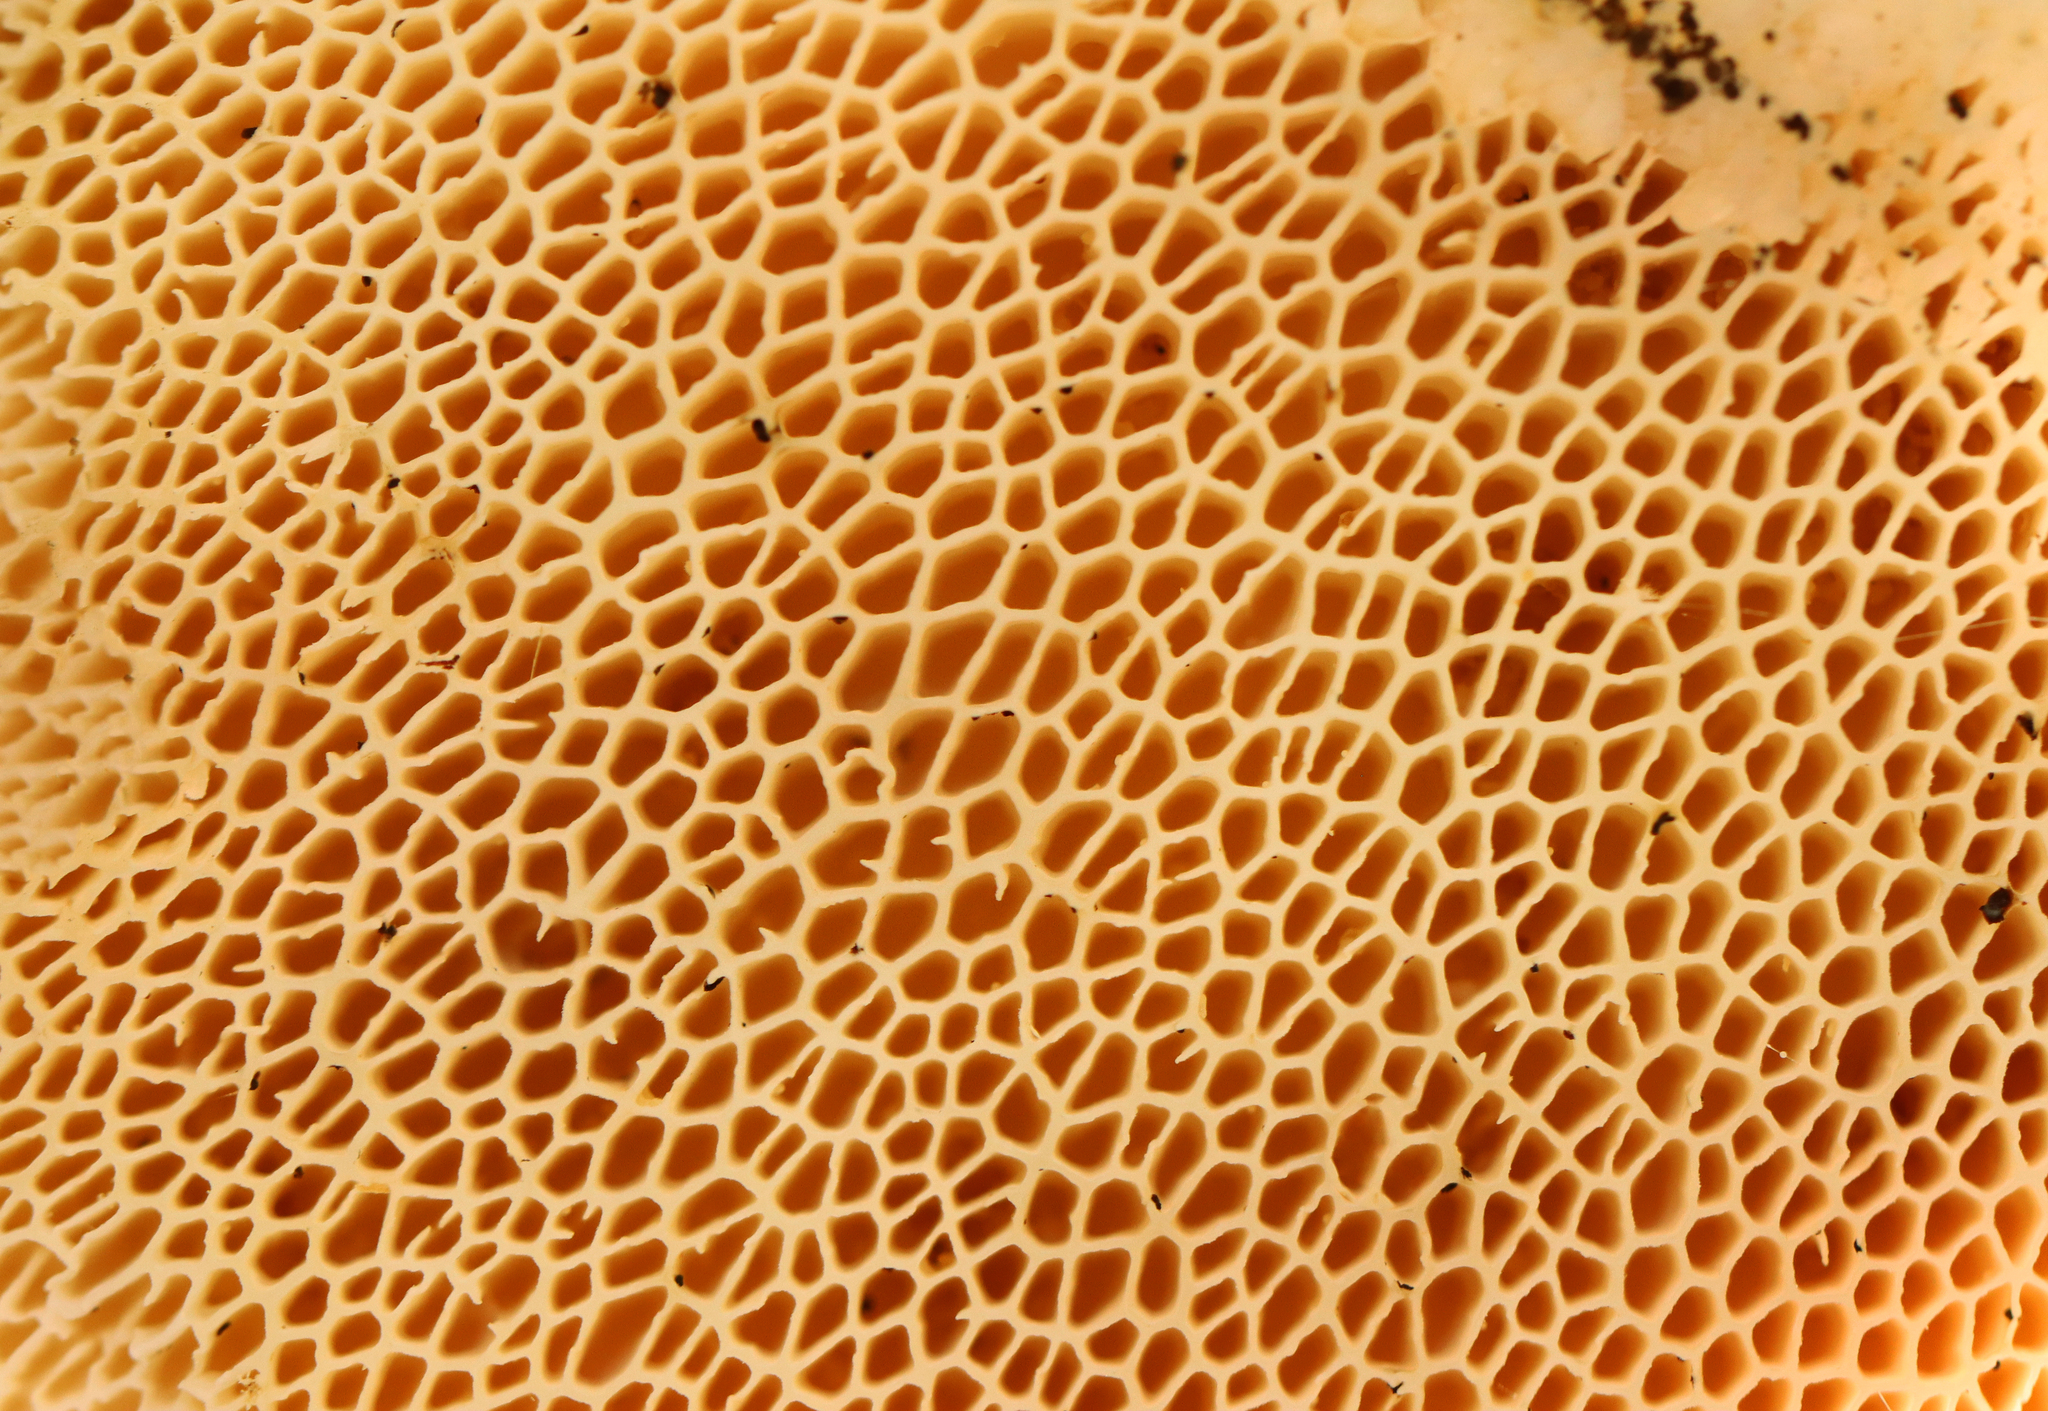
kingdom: Fungi
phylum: Basidiomycota
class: Agaricomycetes
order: Polyporales
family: Polyporaceae
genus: Cerioporus
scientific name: Cerioporus squamosus
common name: Dryad's saddle
